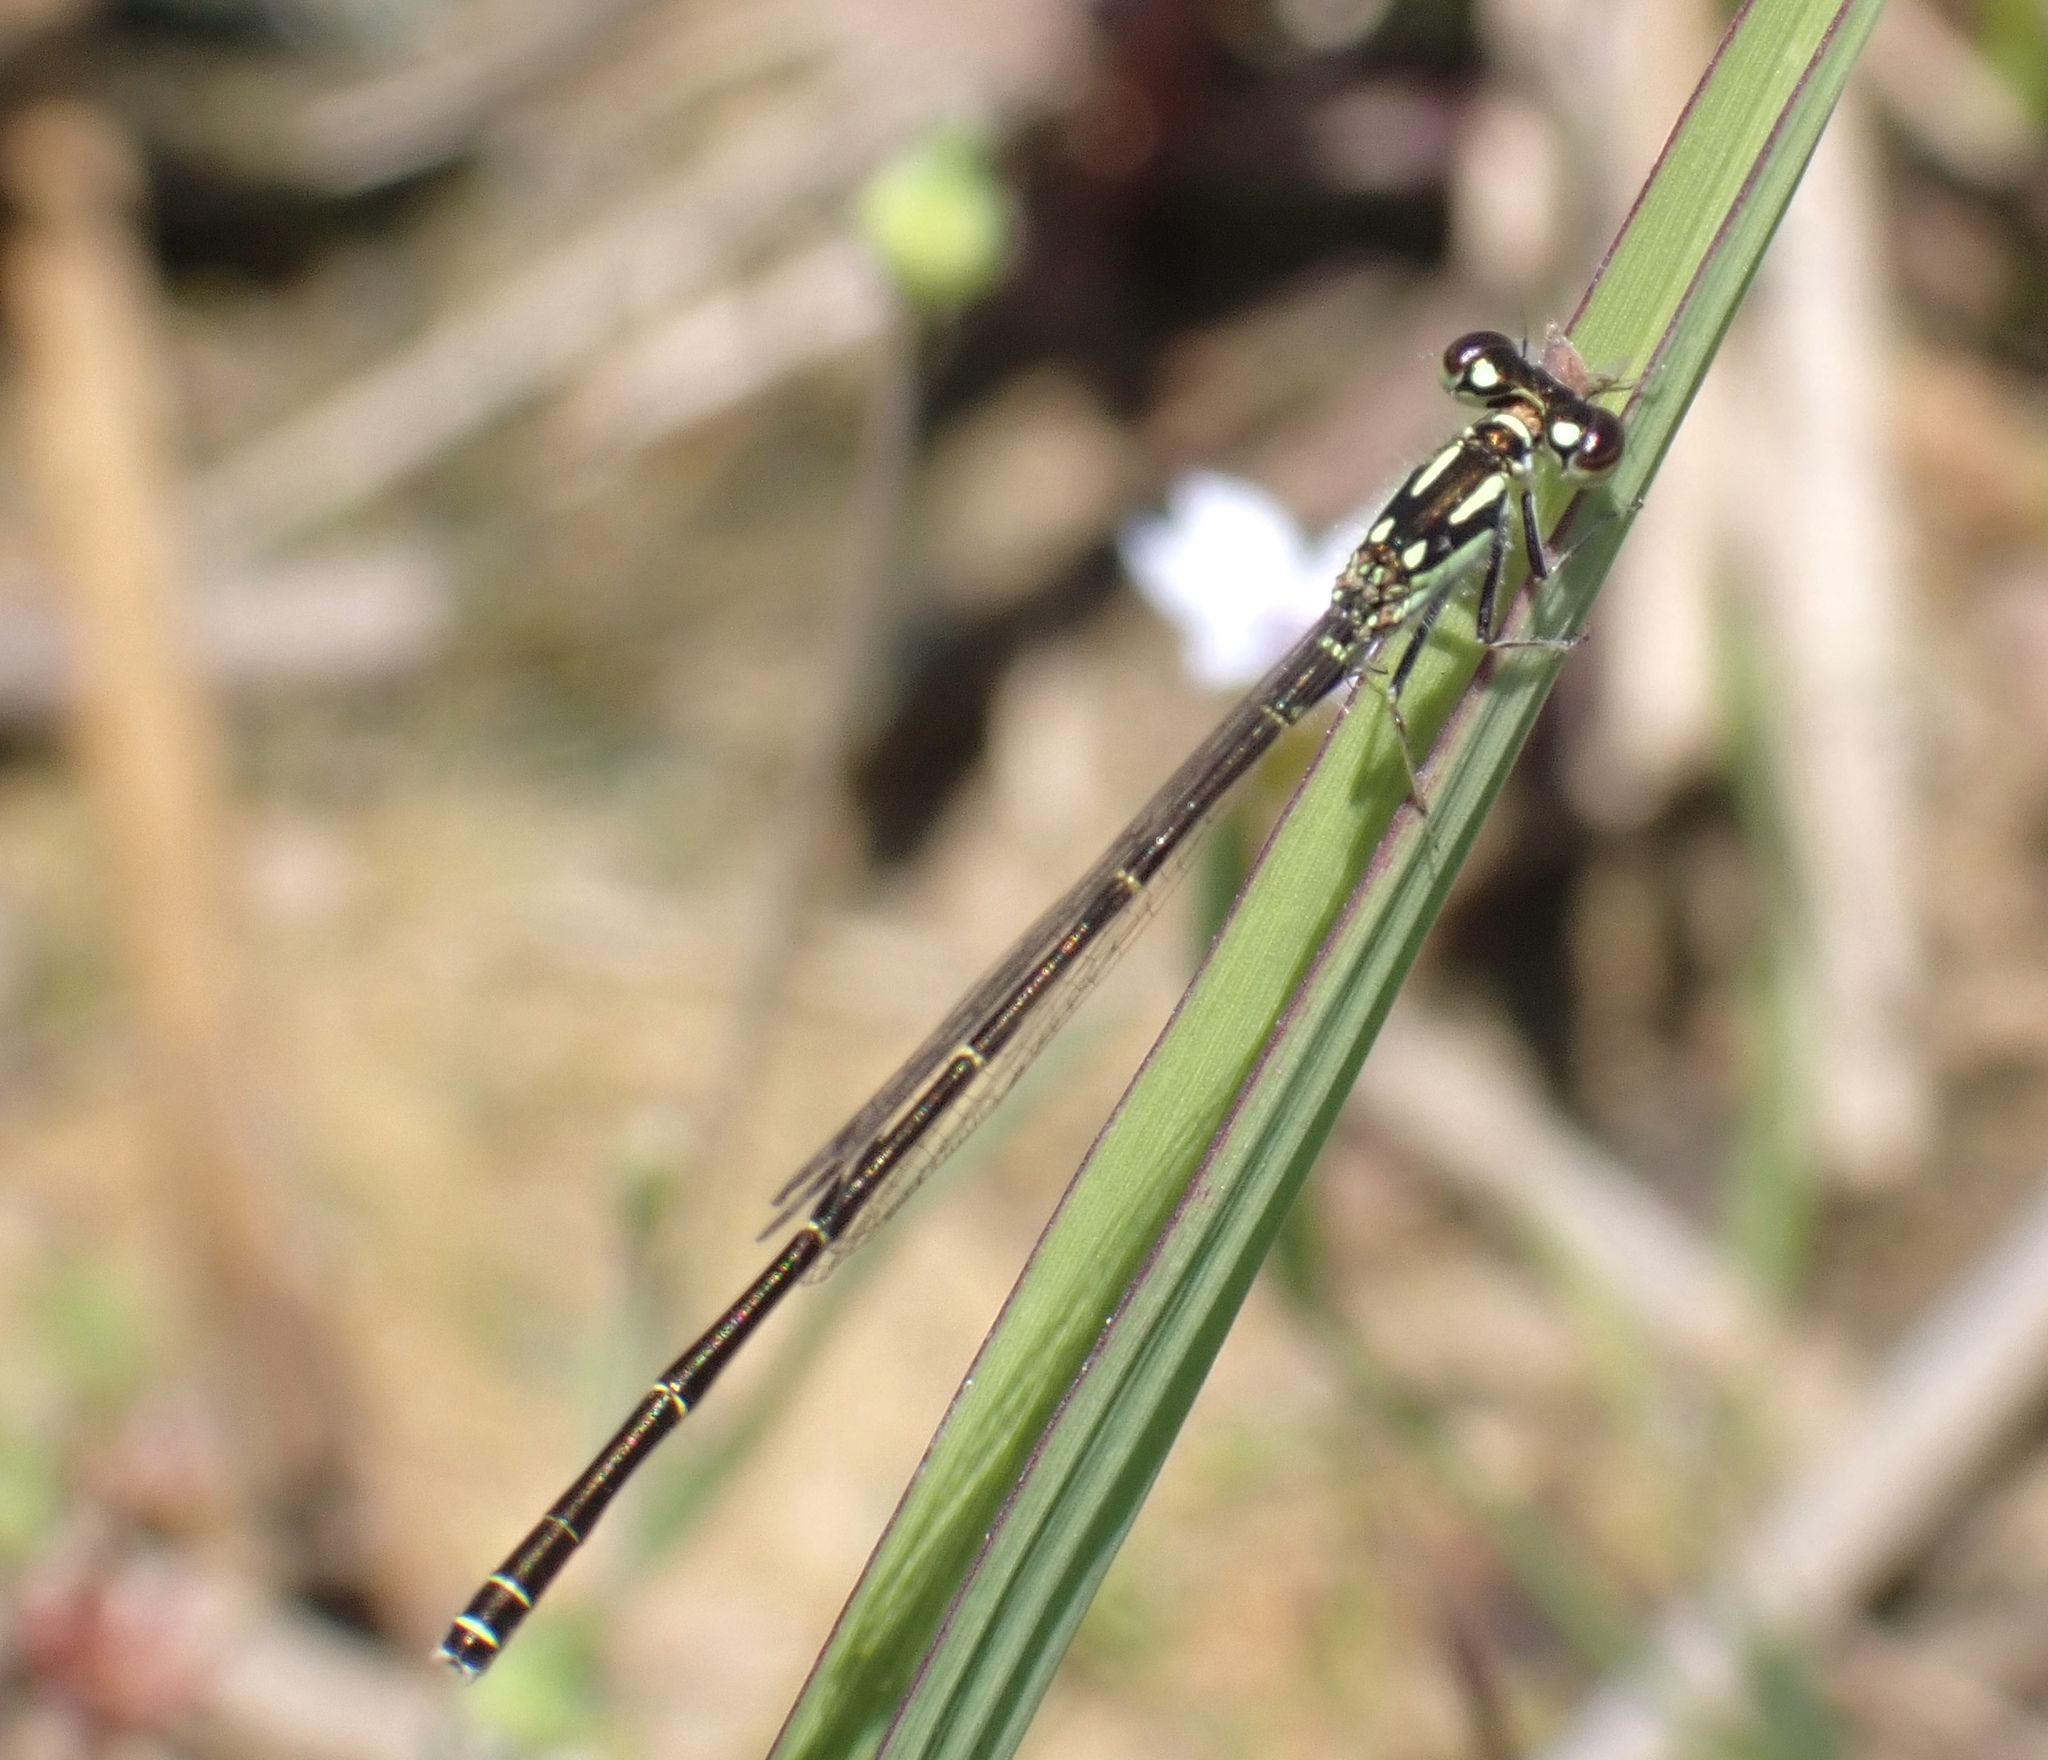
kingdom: Animalia
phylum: Arthropoda
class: Insecta
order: Odonata
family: Coenagrionidae
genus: Ischnura
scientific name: Ischnura posita
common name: Fragile forktail
